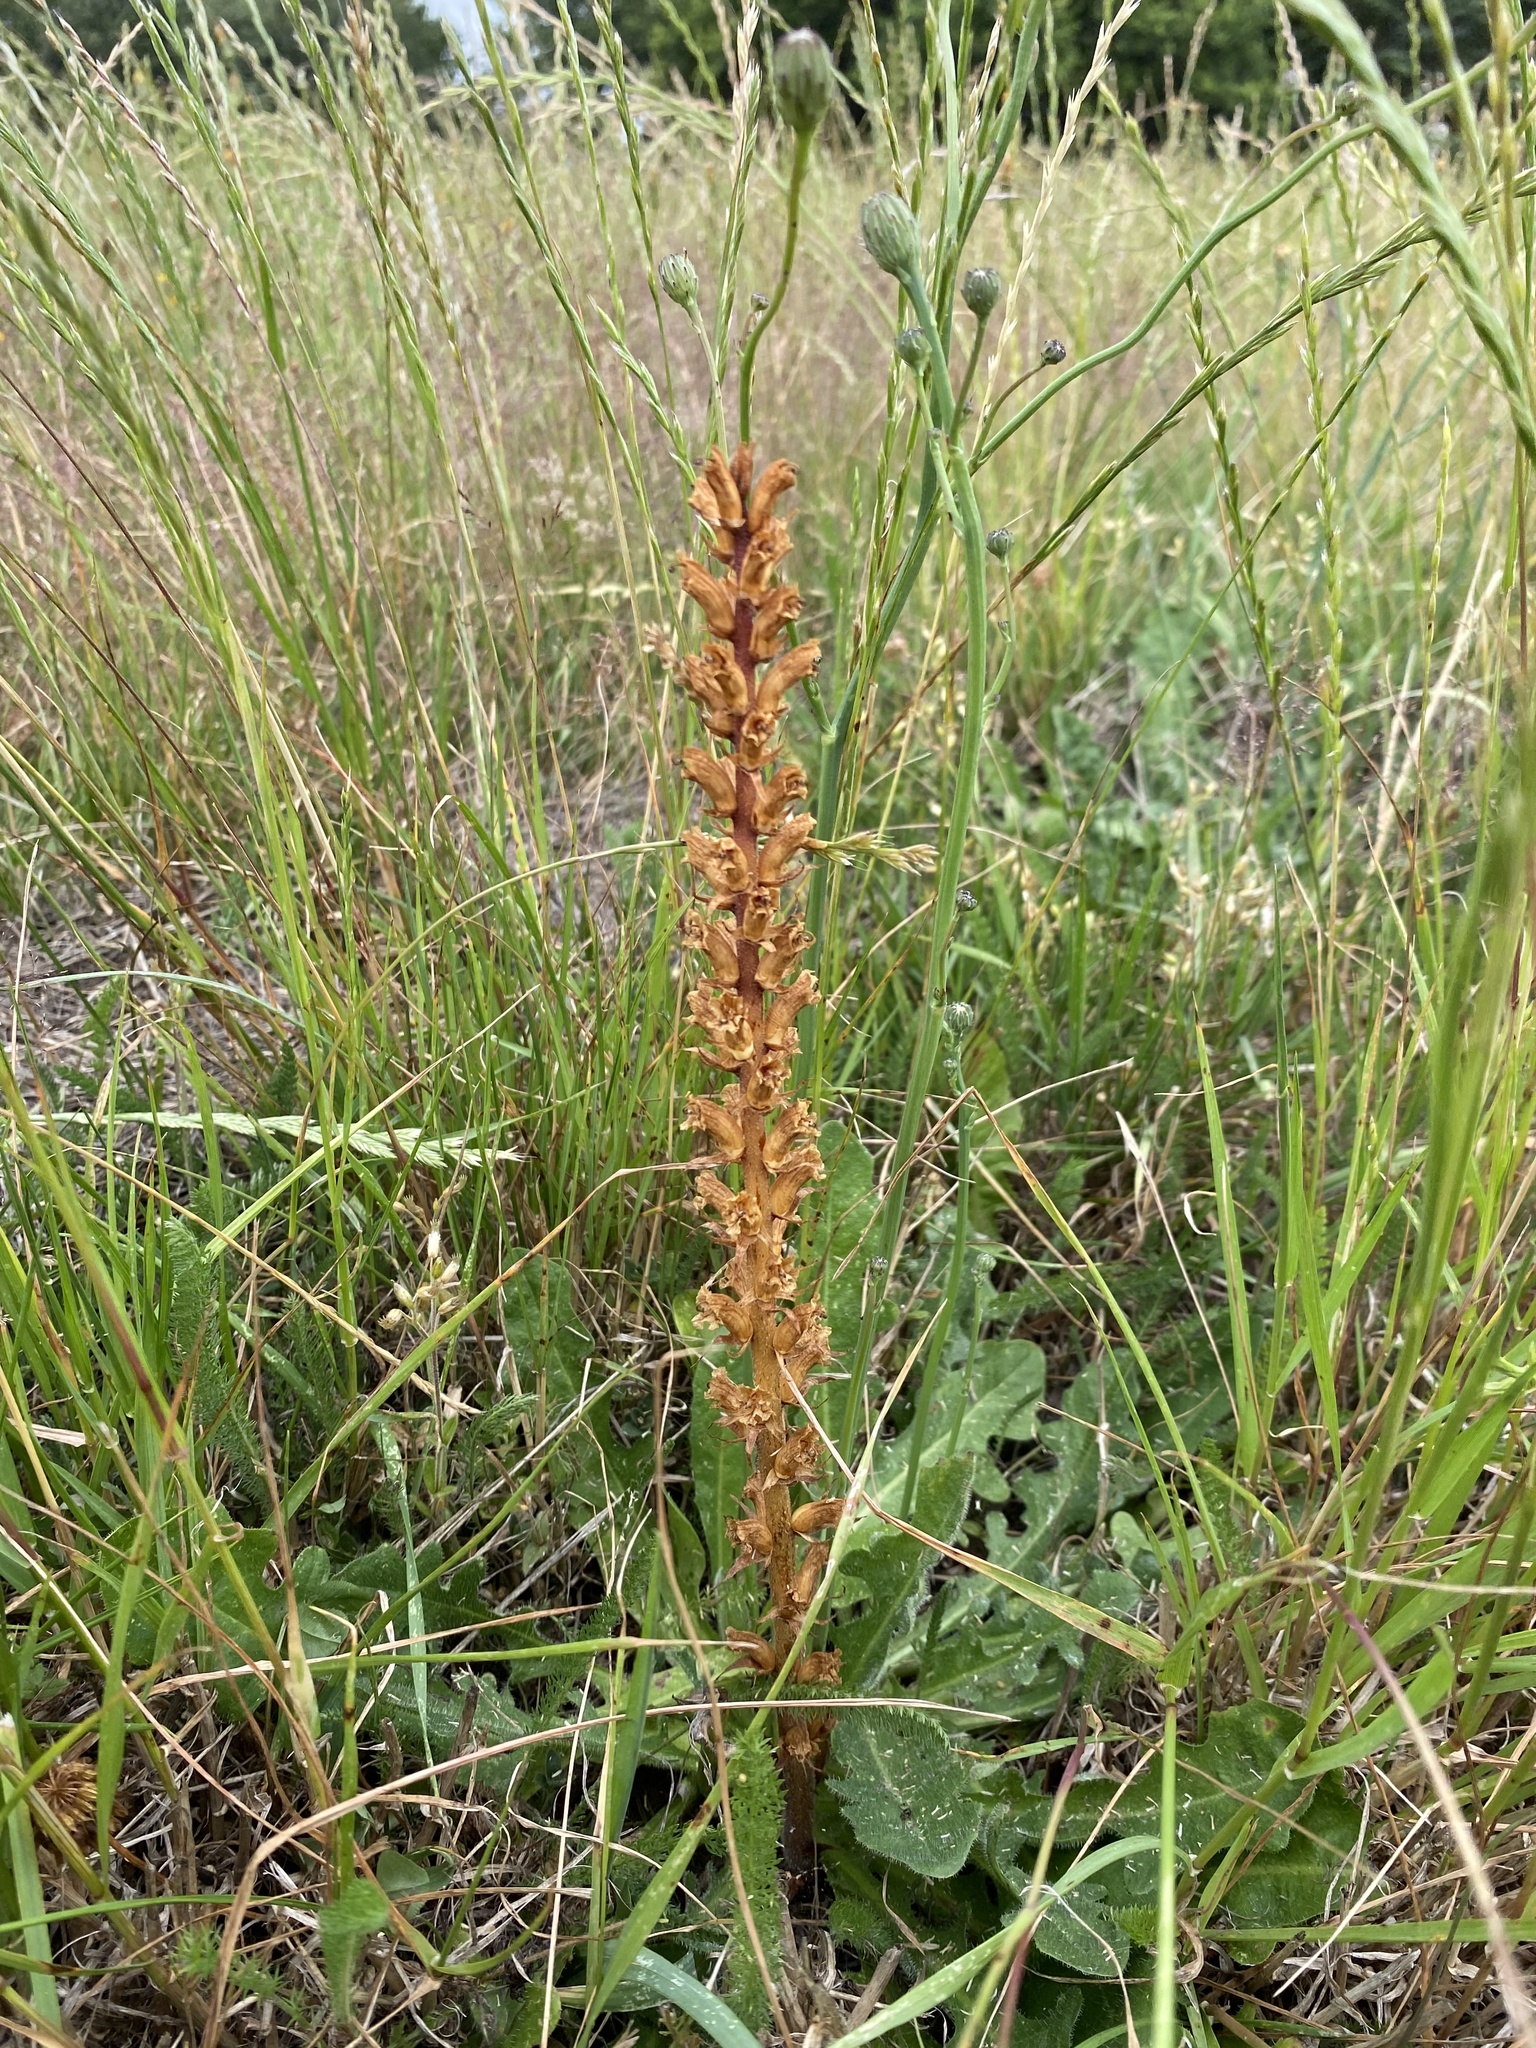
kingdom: Plantae
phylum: Tracheophyta
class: Magnoliopsida
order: Lamiales
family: Orobanchaceae
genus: Orobanche
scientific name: Orobanche minor
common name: Common broomrape
